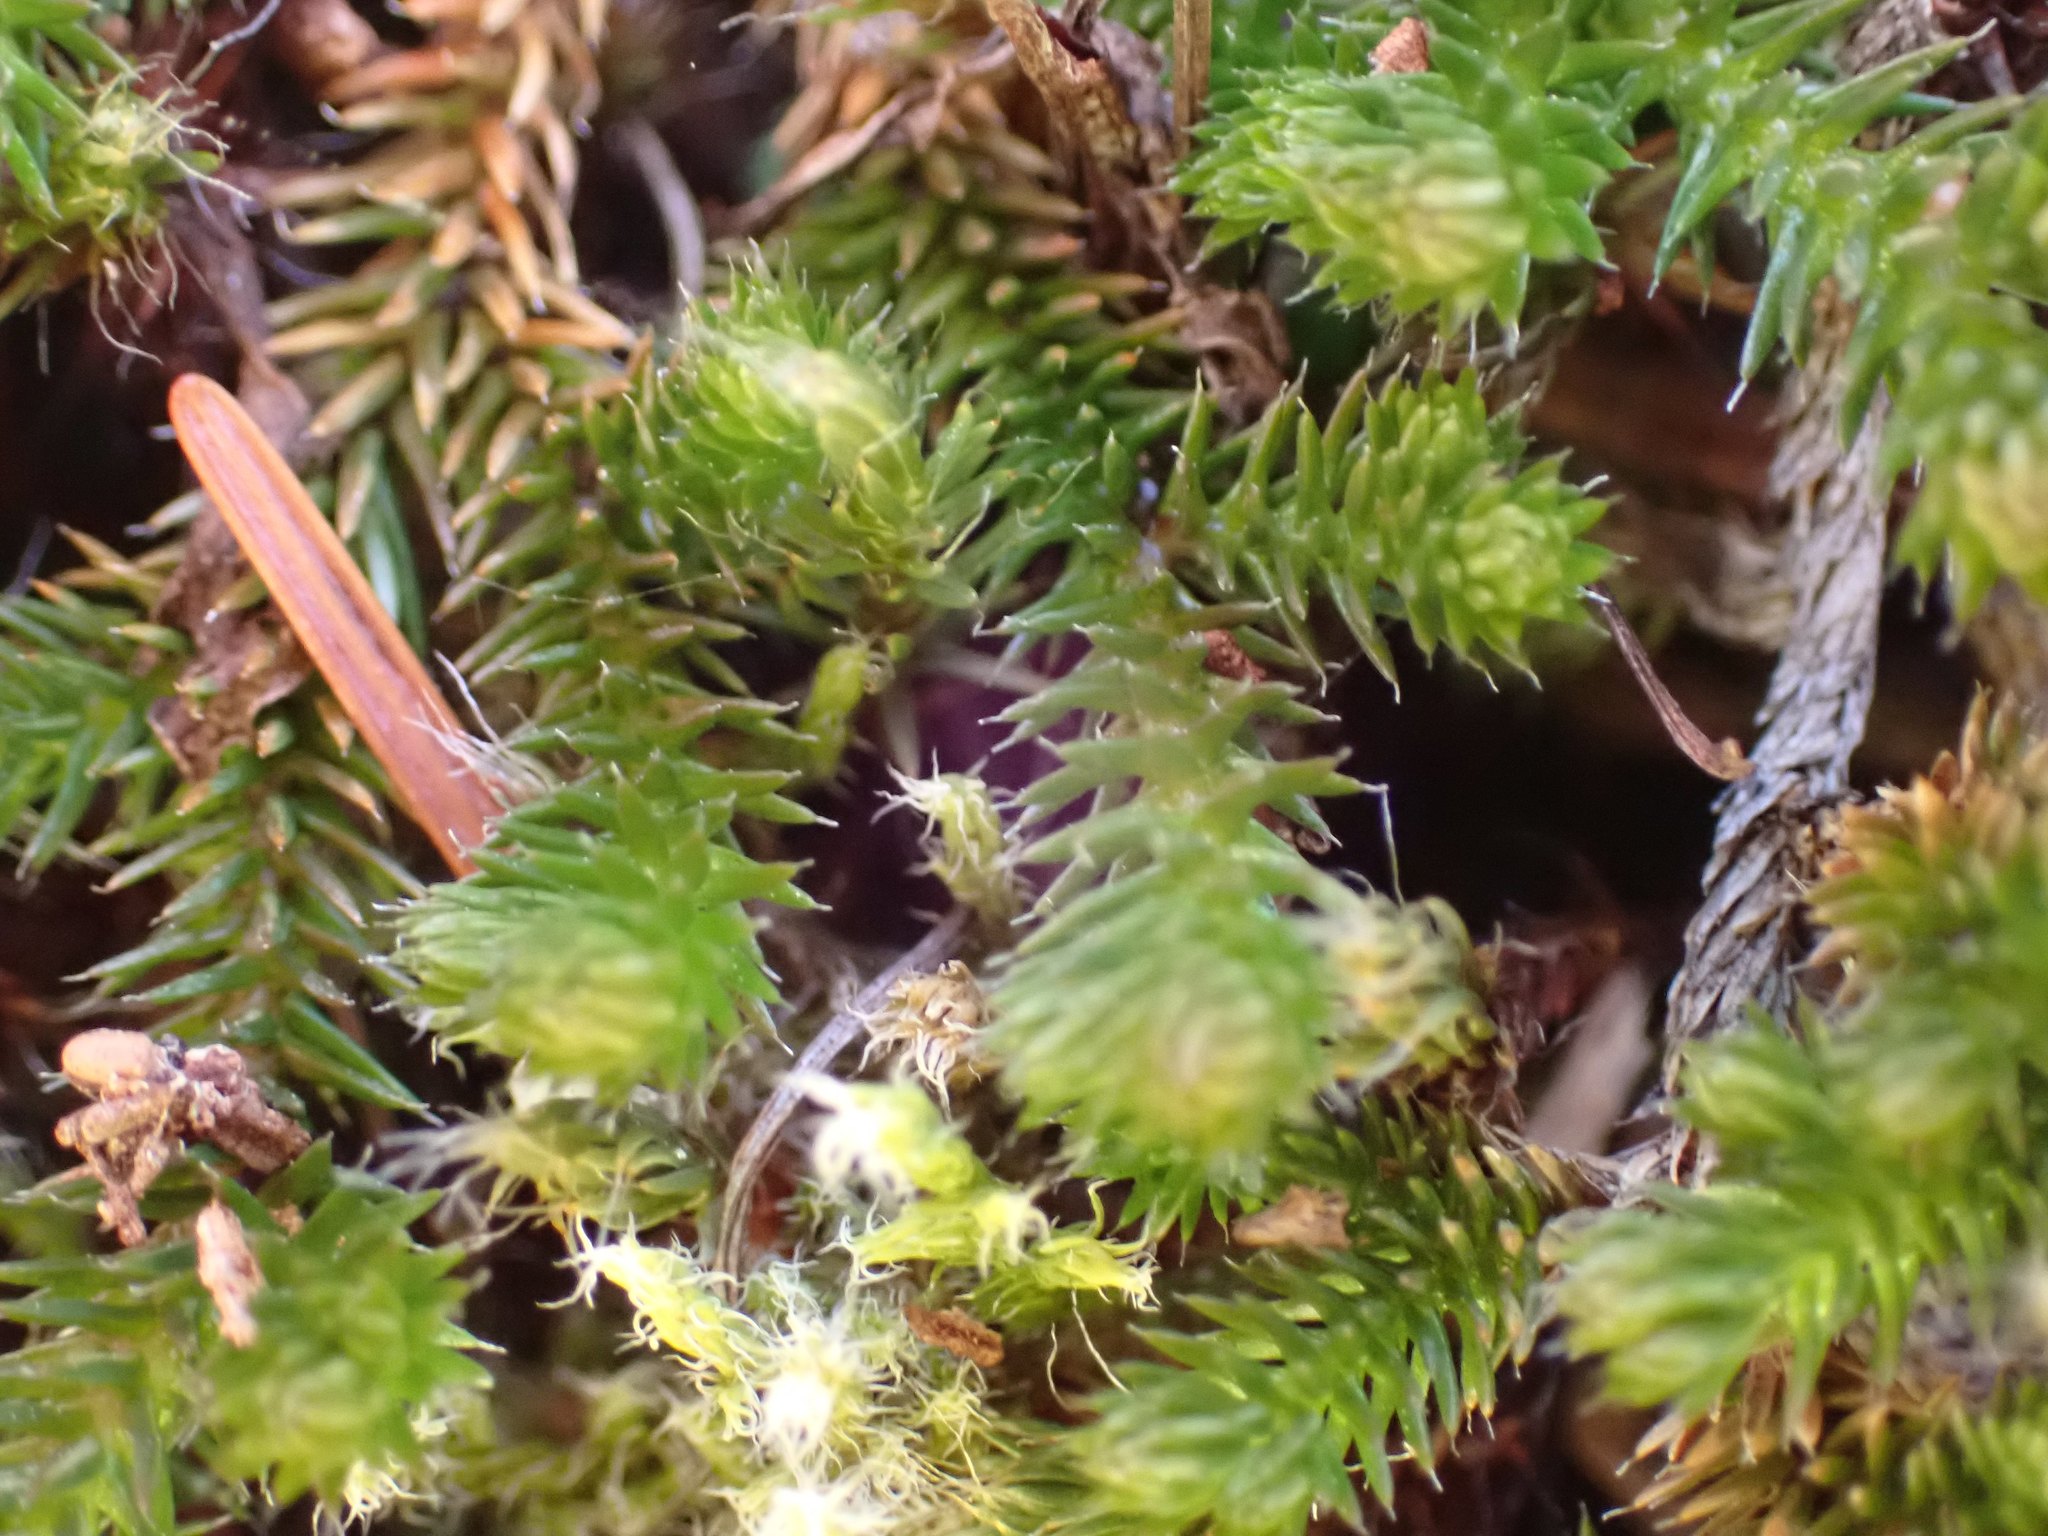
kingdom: Plantae
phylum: Tracheophyta
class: Lycopodiopsida
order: Selaginellales
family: Selaginellaceae
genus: Selaginella
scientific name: Selaginella wallacei
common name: Wallace's selaginella
